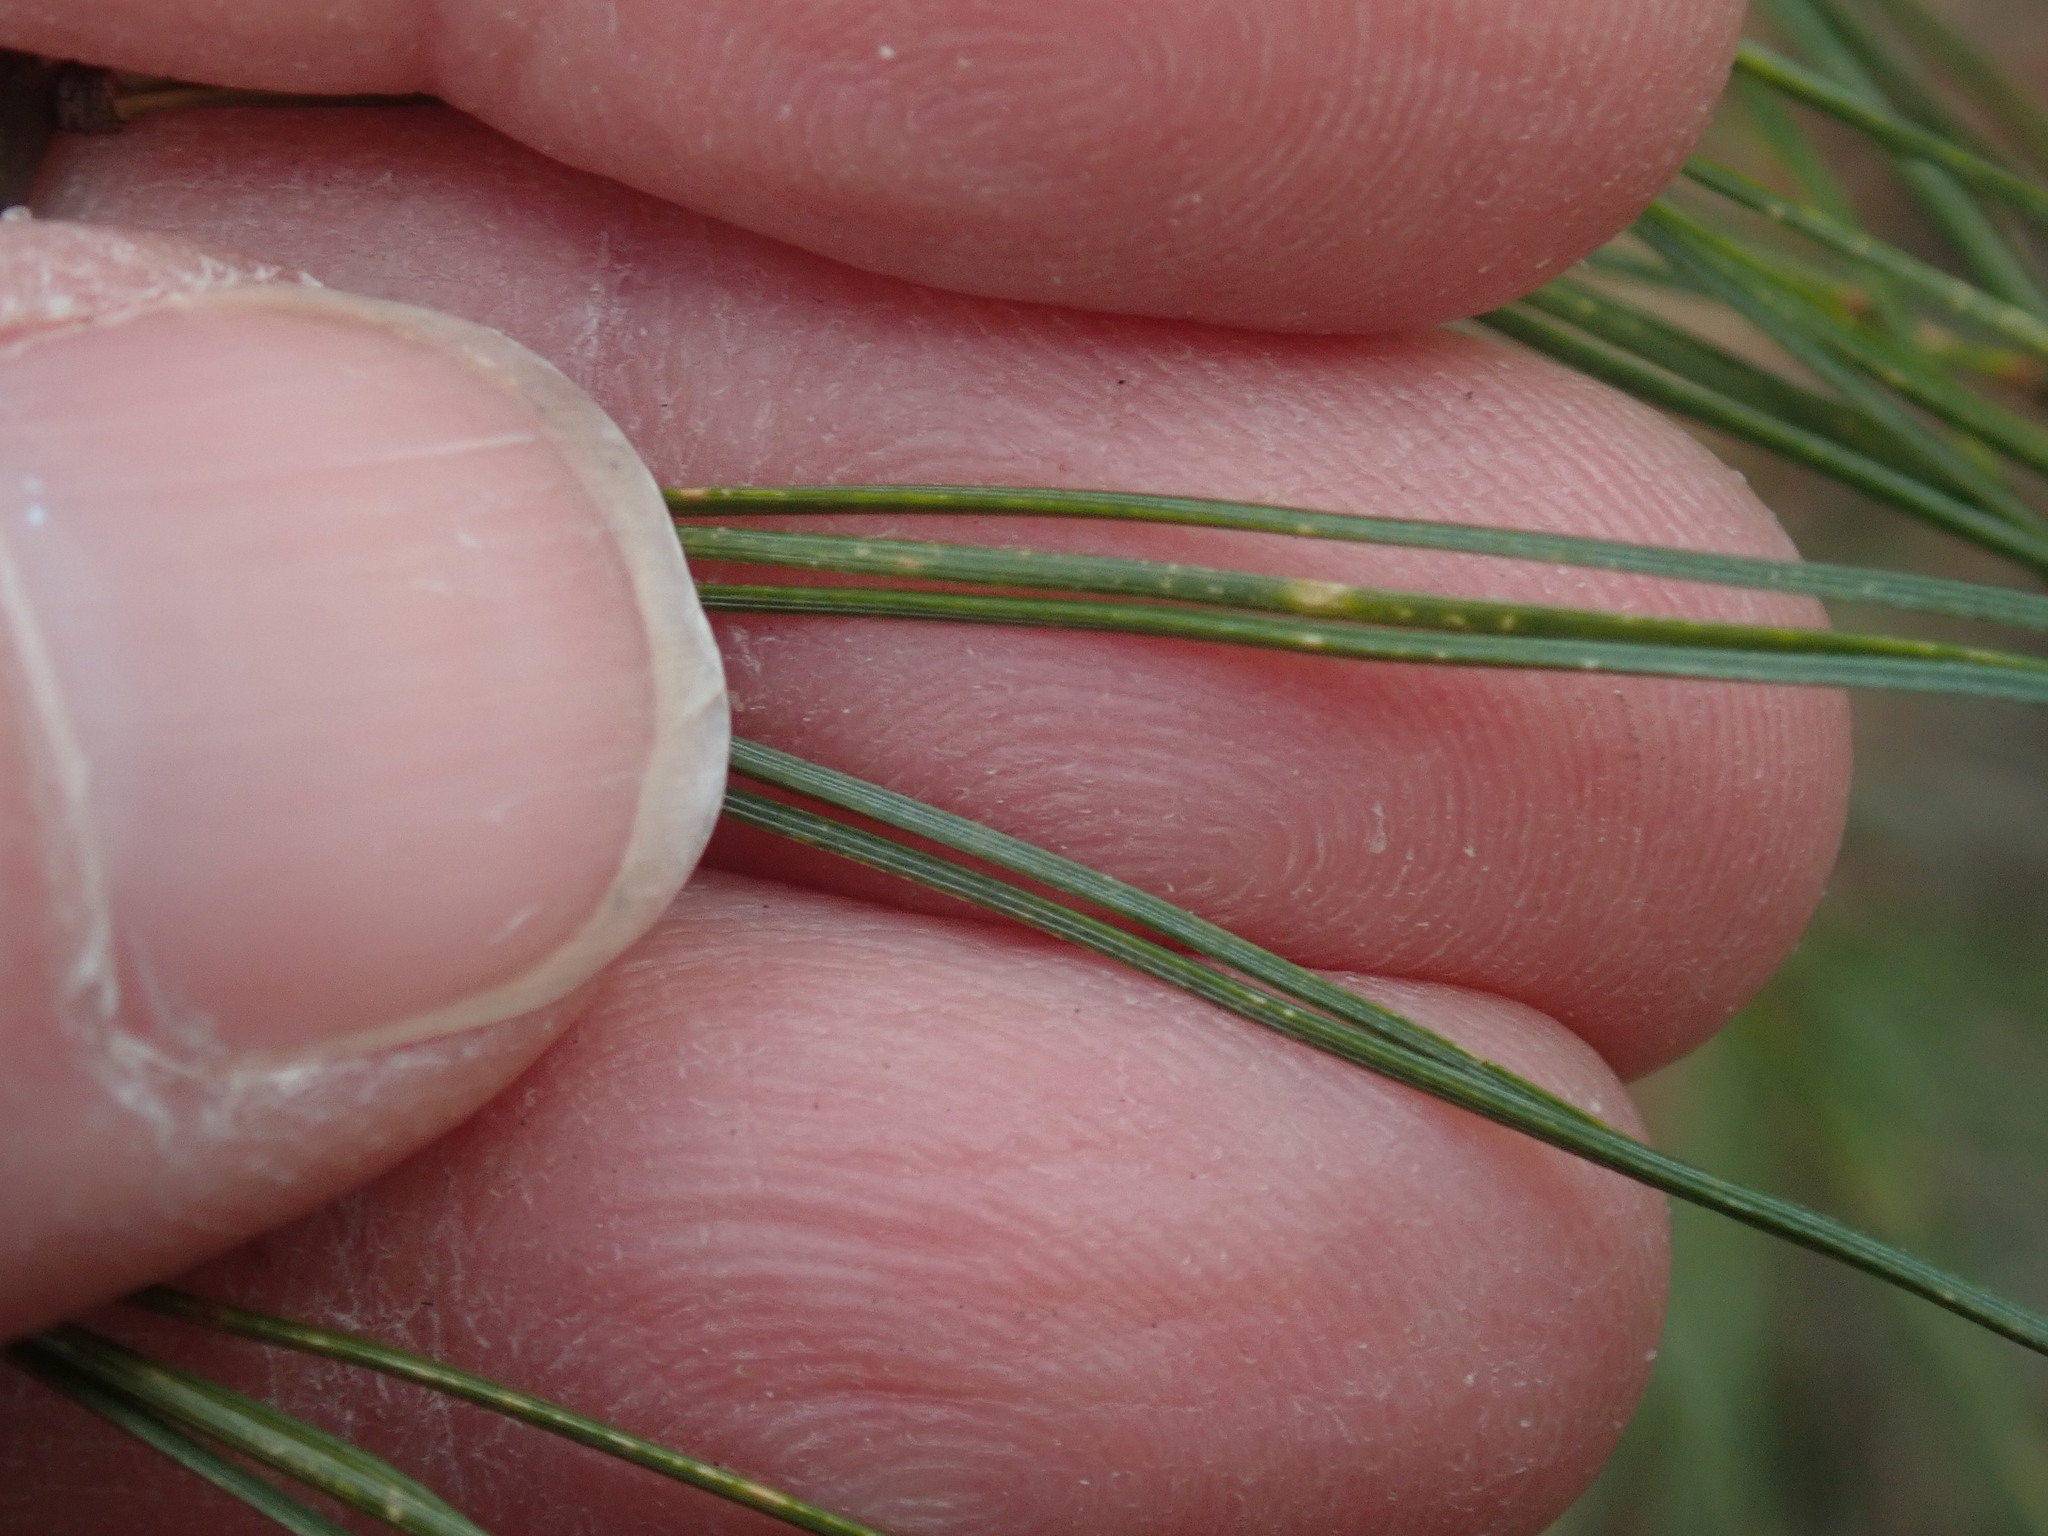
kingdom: Plantae
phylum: Tracheophyta
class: Pinopsida
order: Pinales
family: Pinaceae
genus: Pinus
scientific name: Pinus strobus
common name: Weymouth pine
